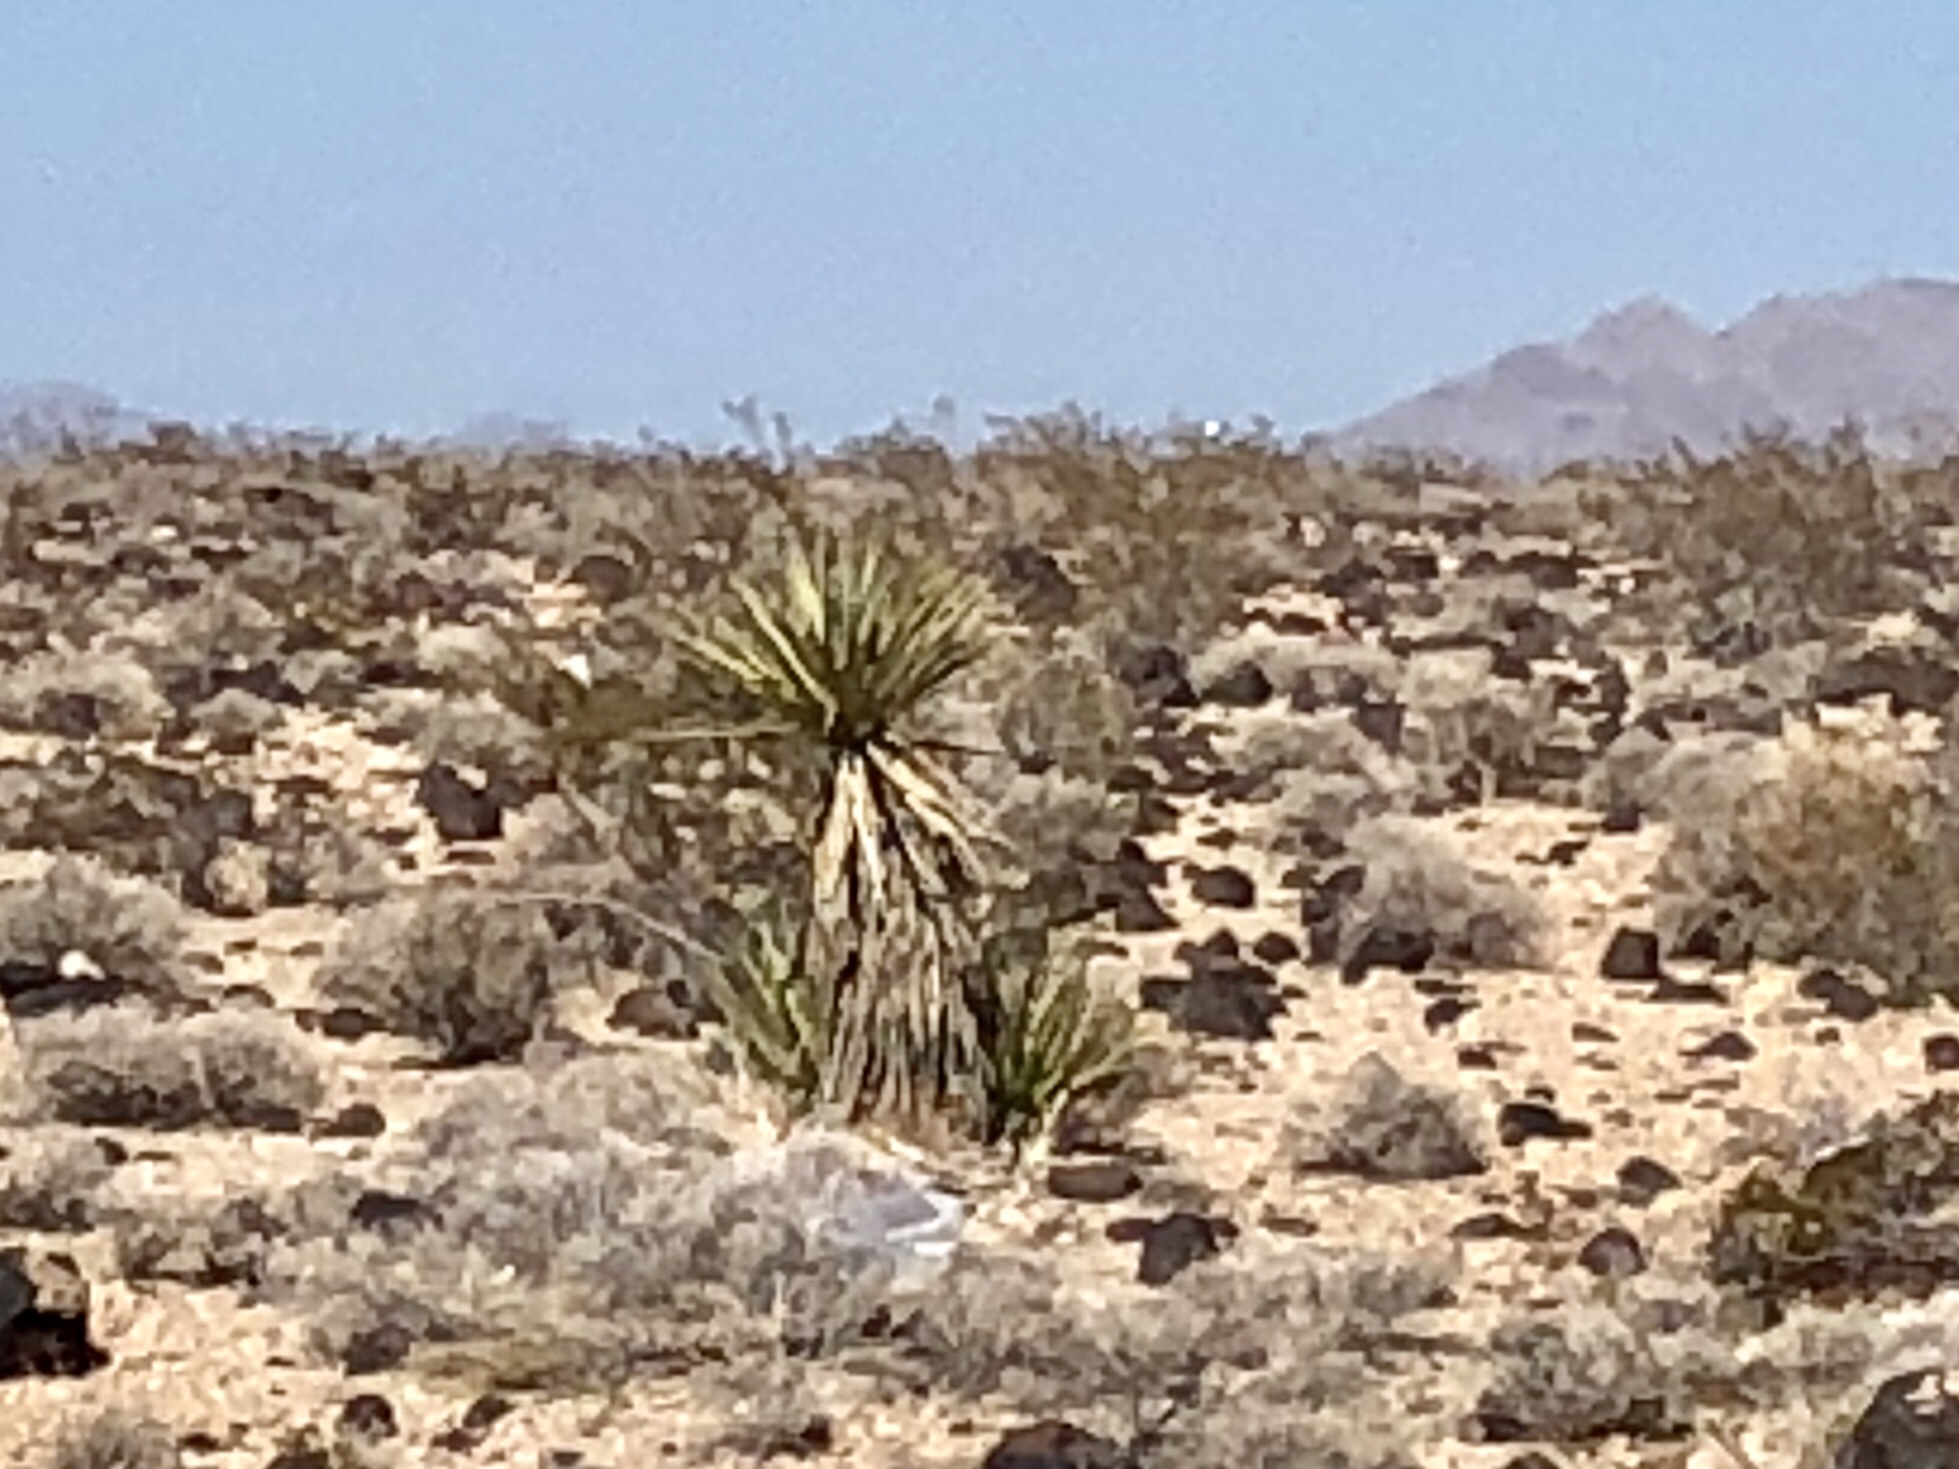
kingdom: Plantae
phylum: Tracheophyta
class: Liliopsida
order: Asparagales
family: Asparagaceae
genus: Yucca
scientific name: Yucca schidigera
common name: Mojave yucca
